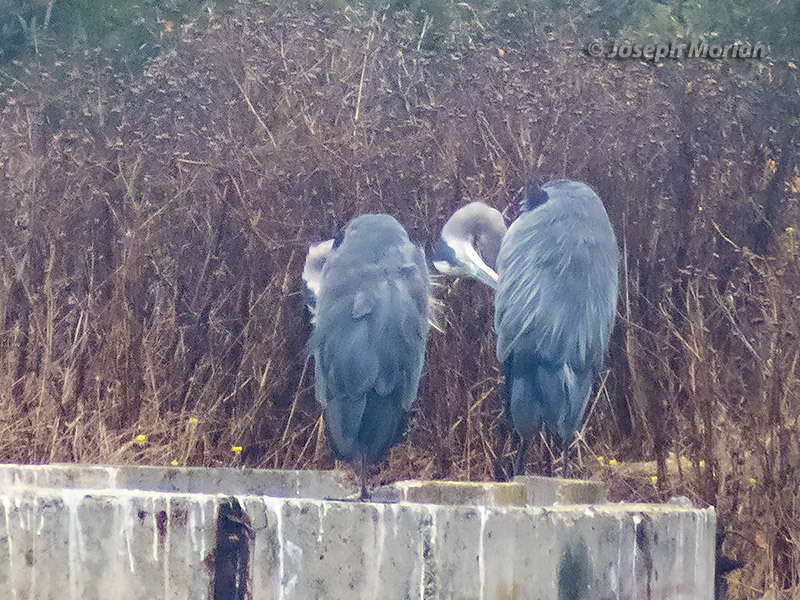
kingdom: Animalia
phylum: Chordata
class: Aves
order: Pelecaniformes
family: Ardeidae
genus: Ardea
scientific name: Ardea herodias
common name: Great blue heron
